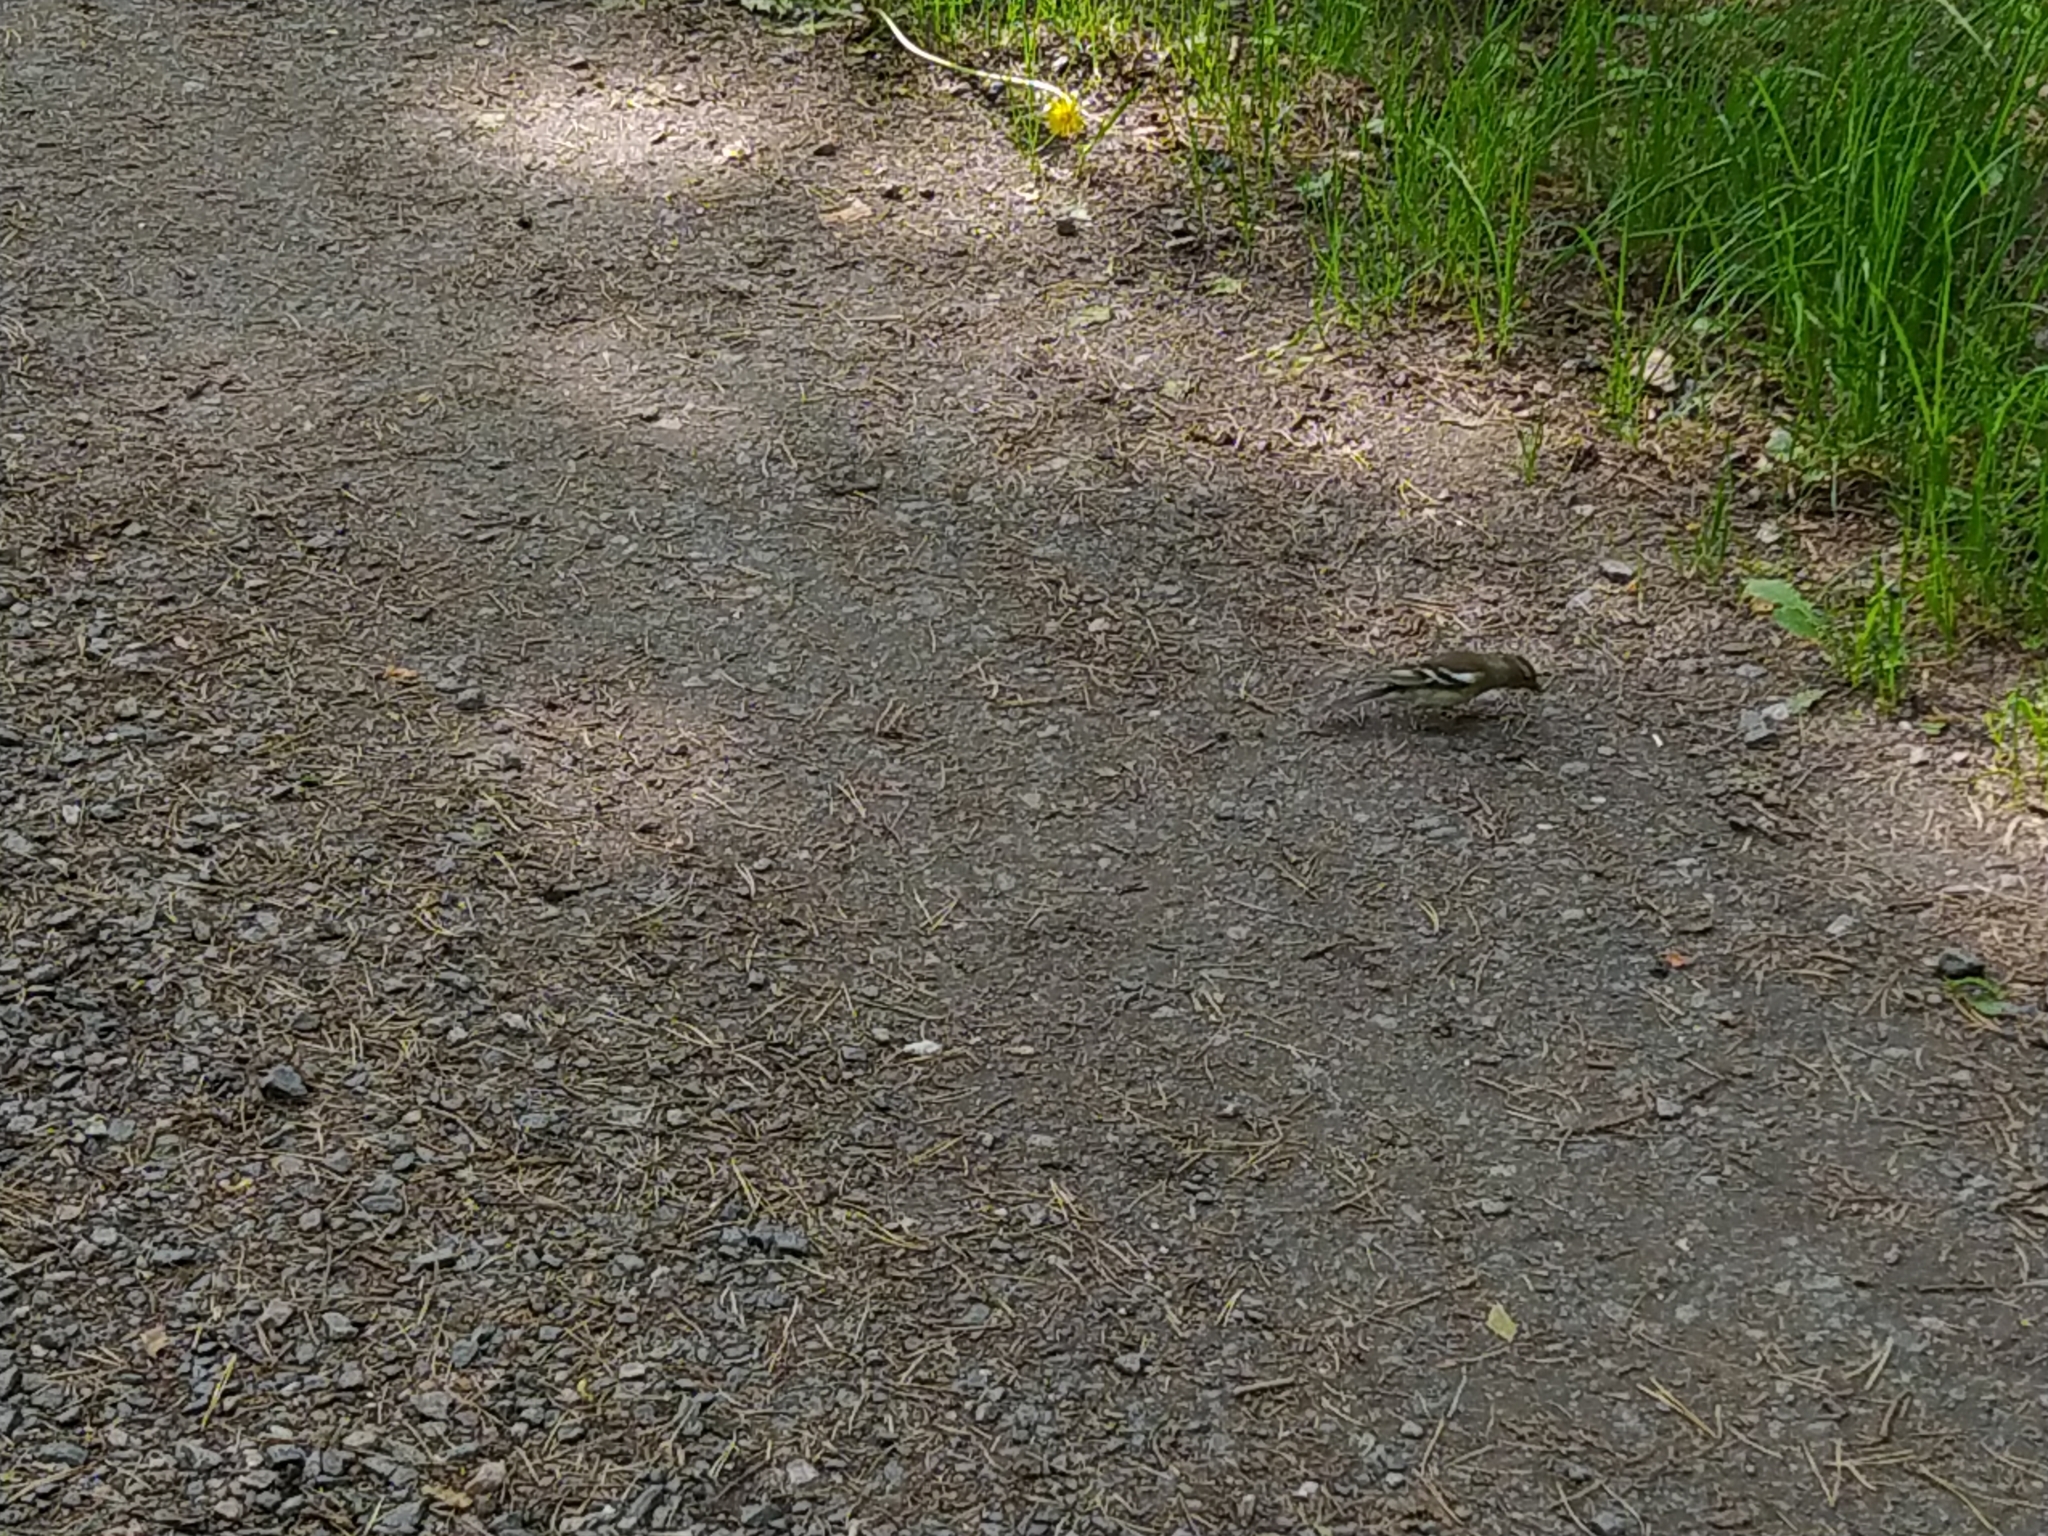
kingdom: Animalia
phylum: Chordata
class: Aves
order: Passeriformes
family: Fringillidae
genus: Fringilla
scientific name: Fringilla coelebs
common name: Common chaffinch
